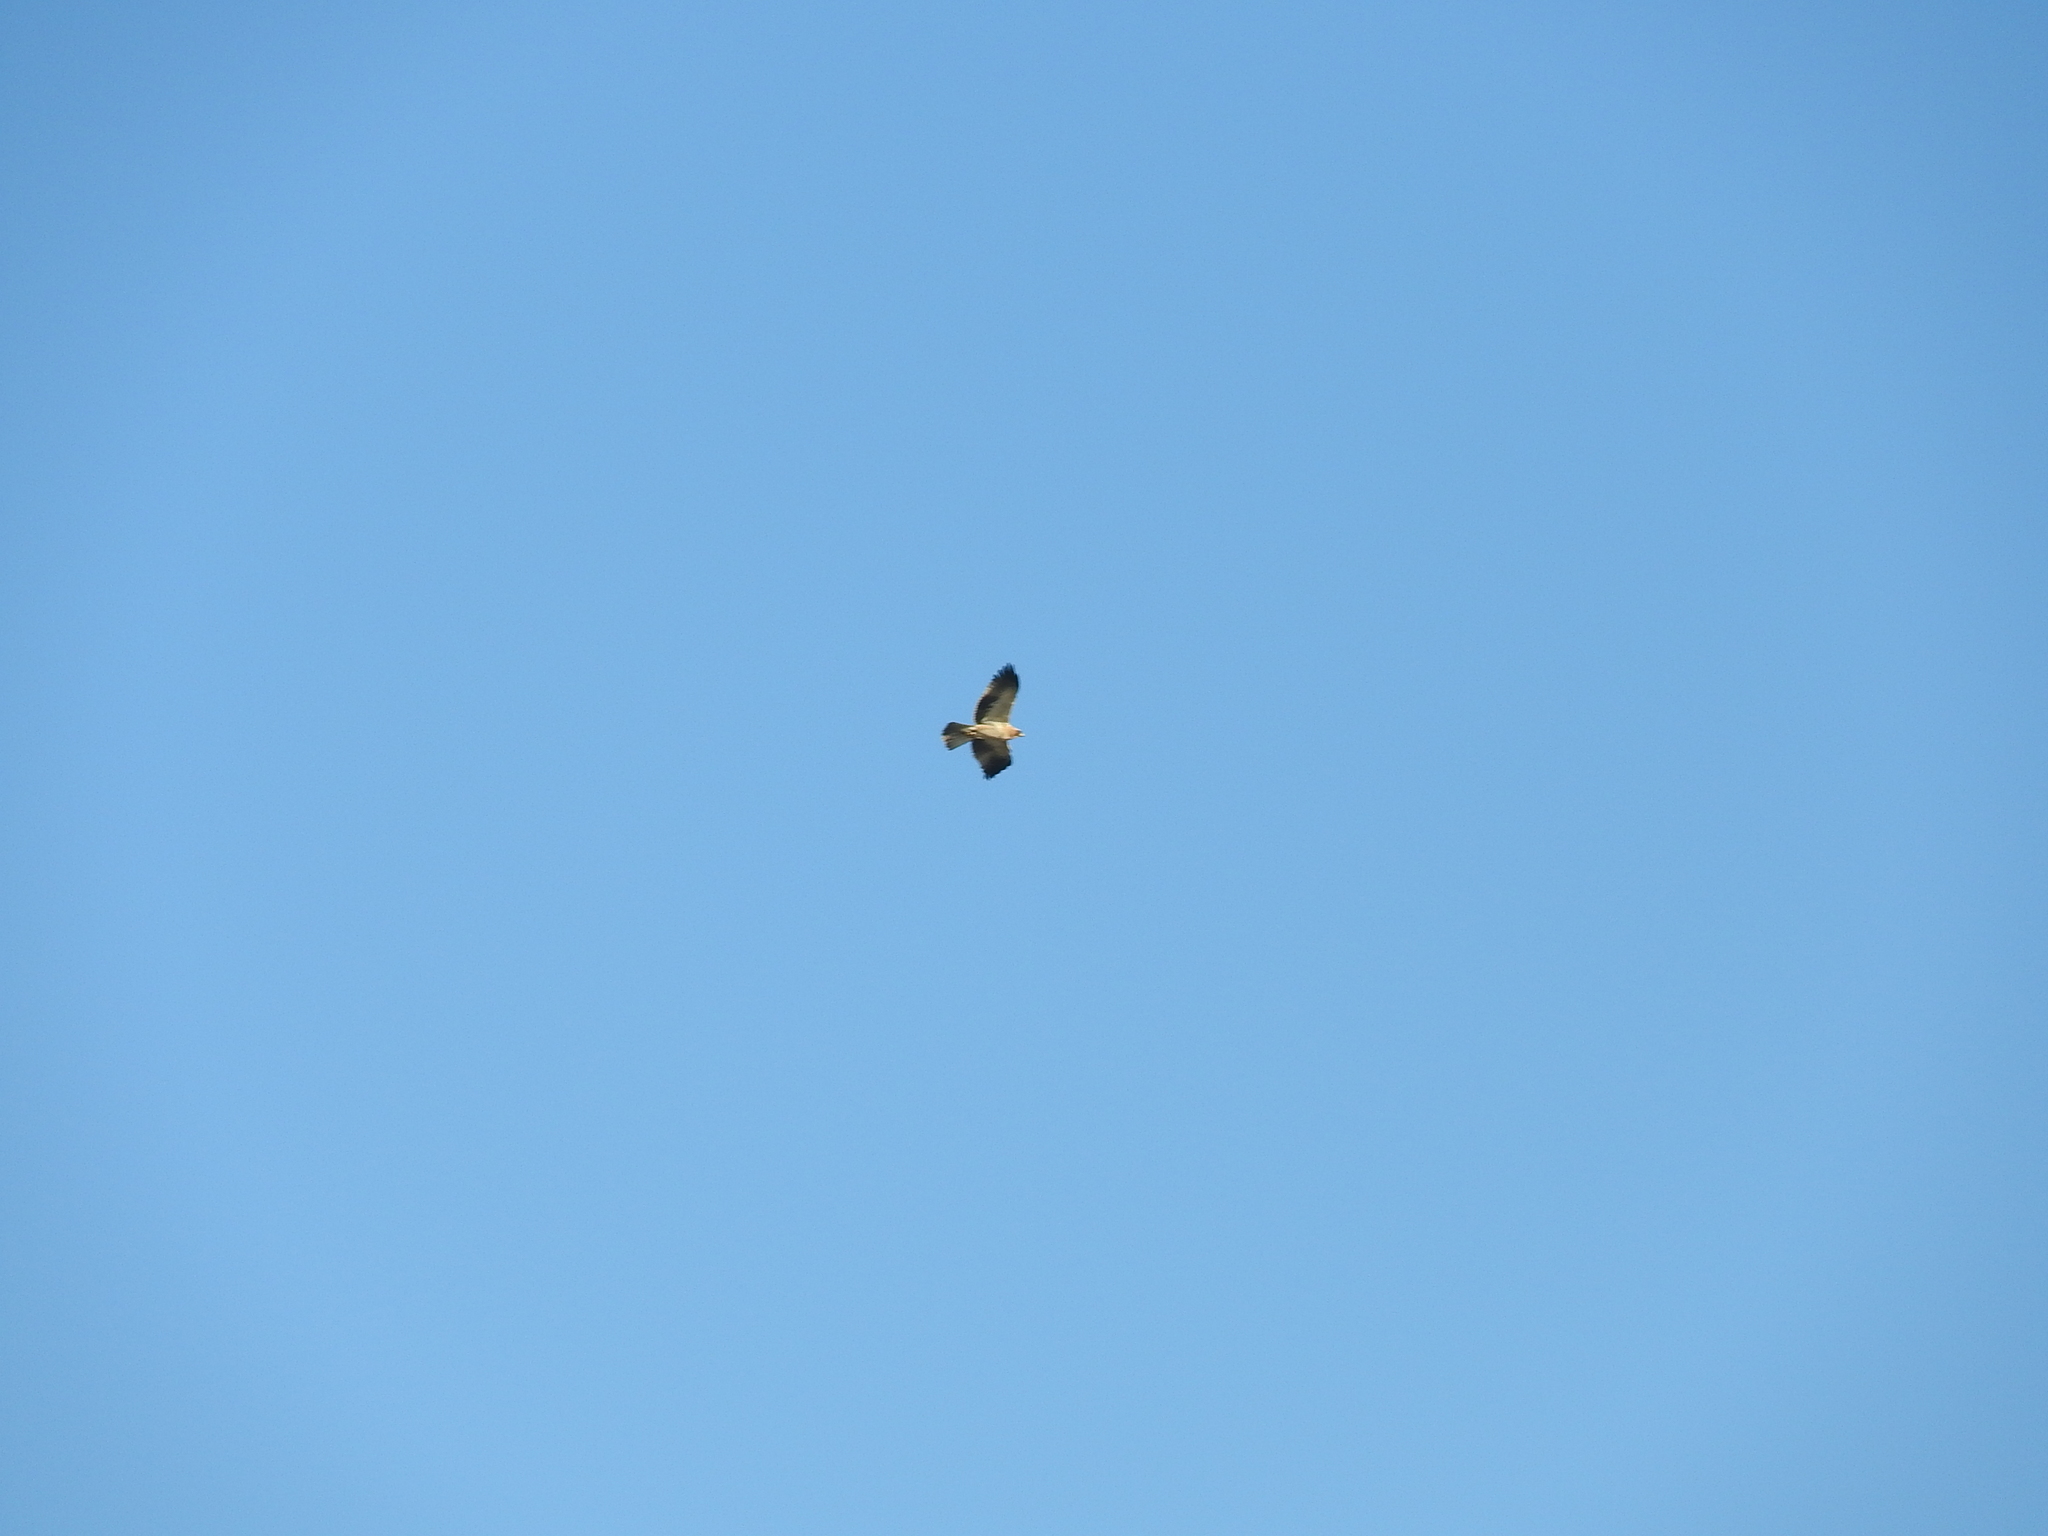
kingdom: Animalia
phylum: Chordata
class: Aves
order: Accipitriformes
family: Accipitridae
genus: Hieraaetus
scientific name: Hieraaetus pennatus
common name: Booted eagle
